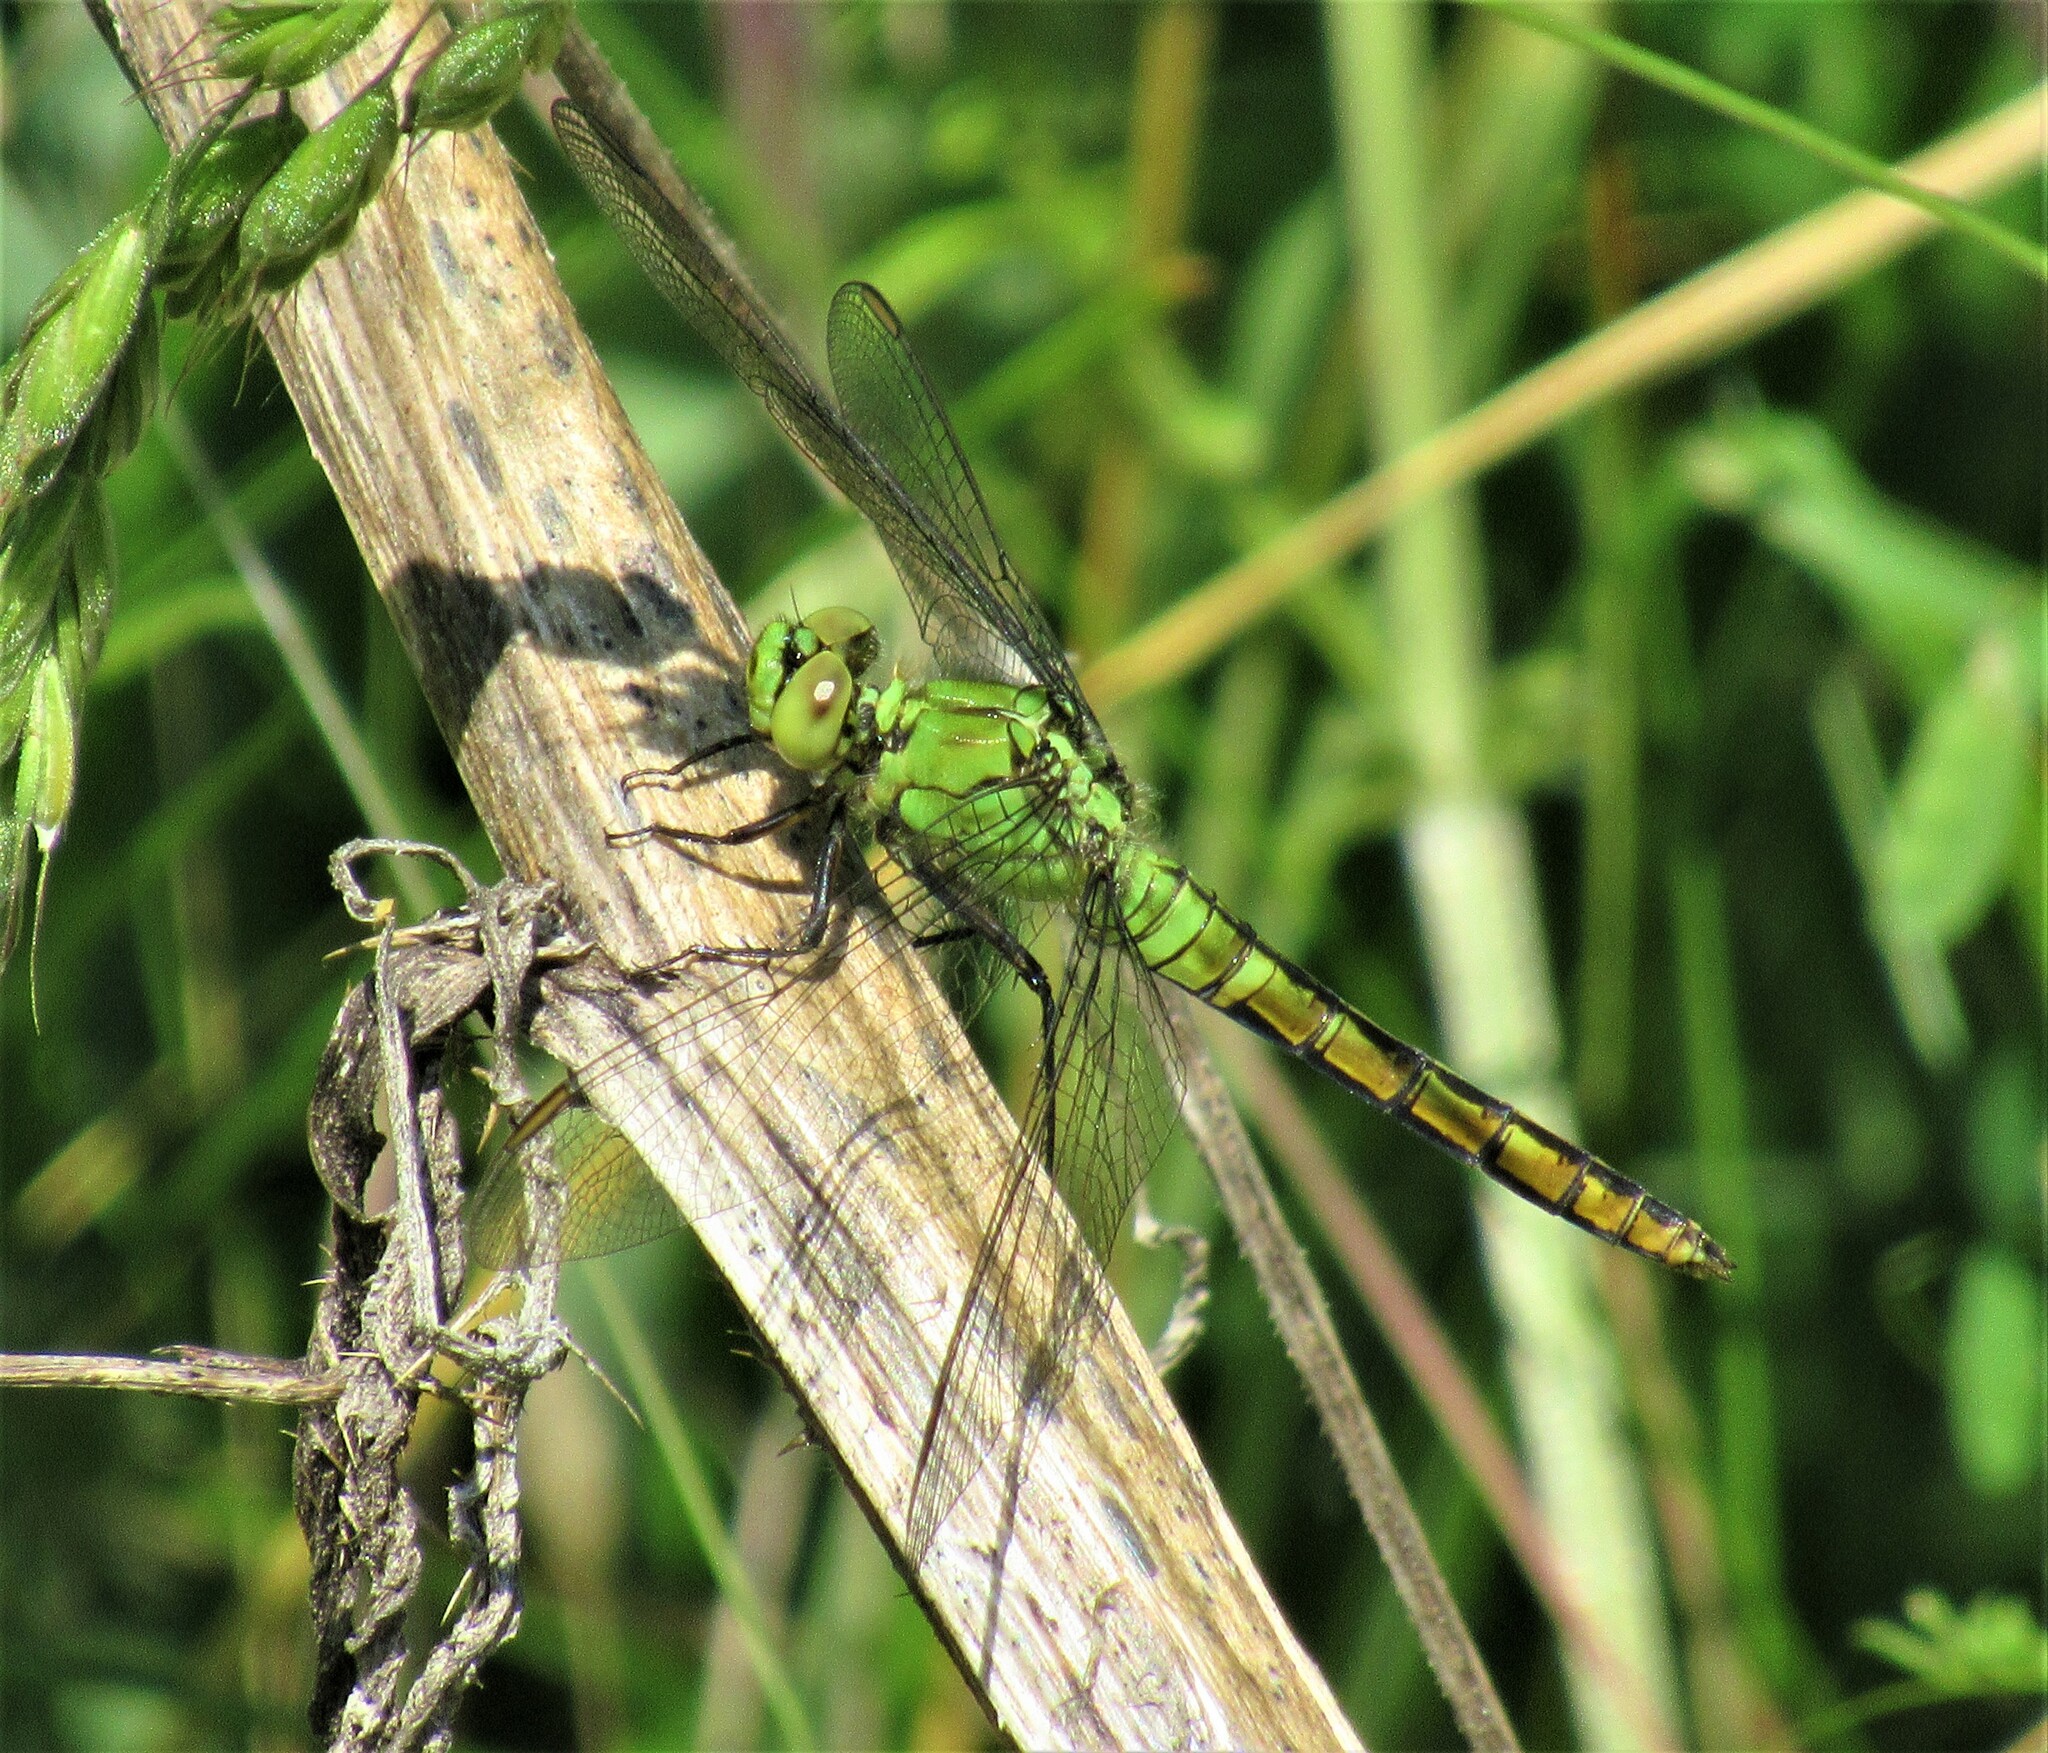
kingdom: Animalia
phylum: Arthropoda
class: Insecta
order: Odonata
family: Libellulidae
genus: Erythemis
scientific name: Erythemis collocata
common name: Western pondhawk
